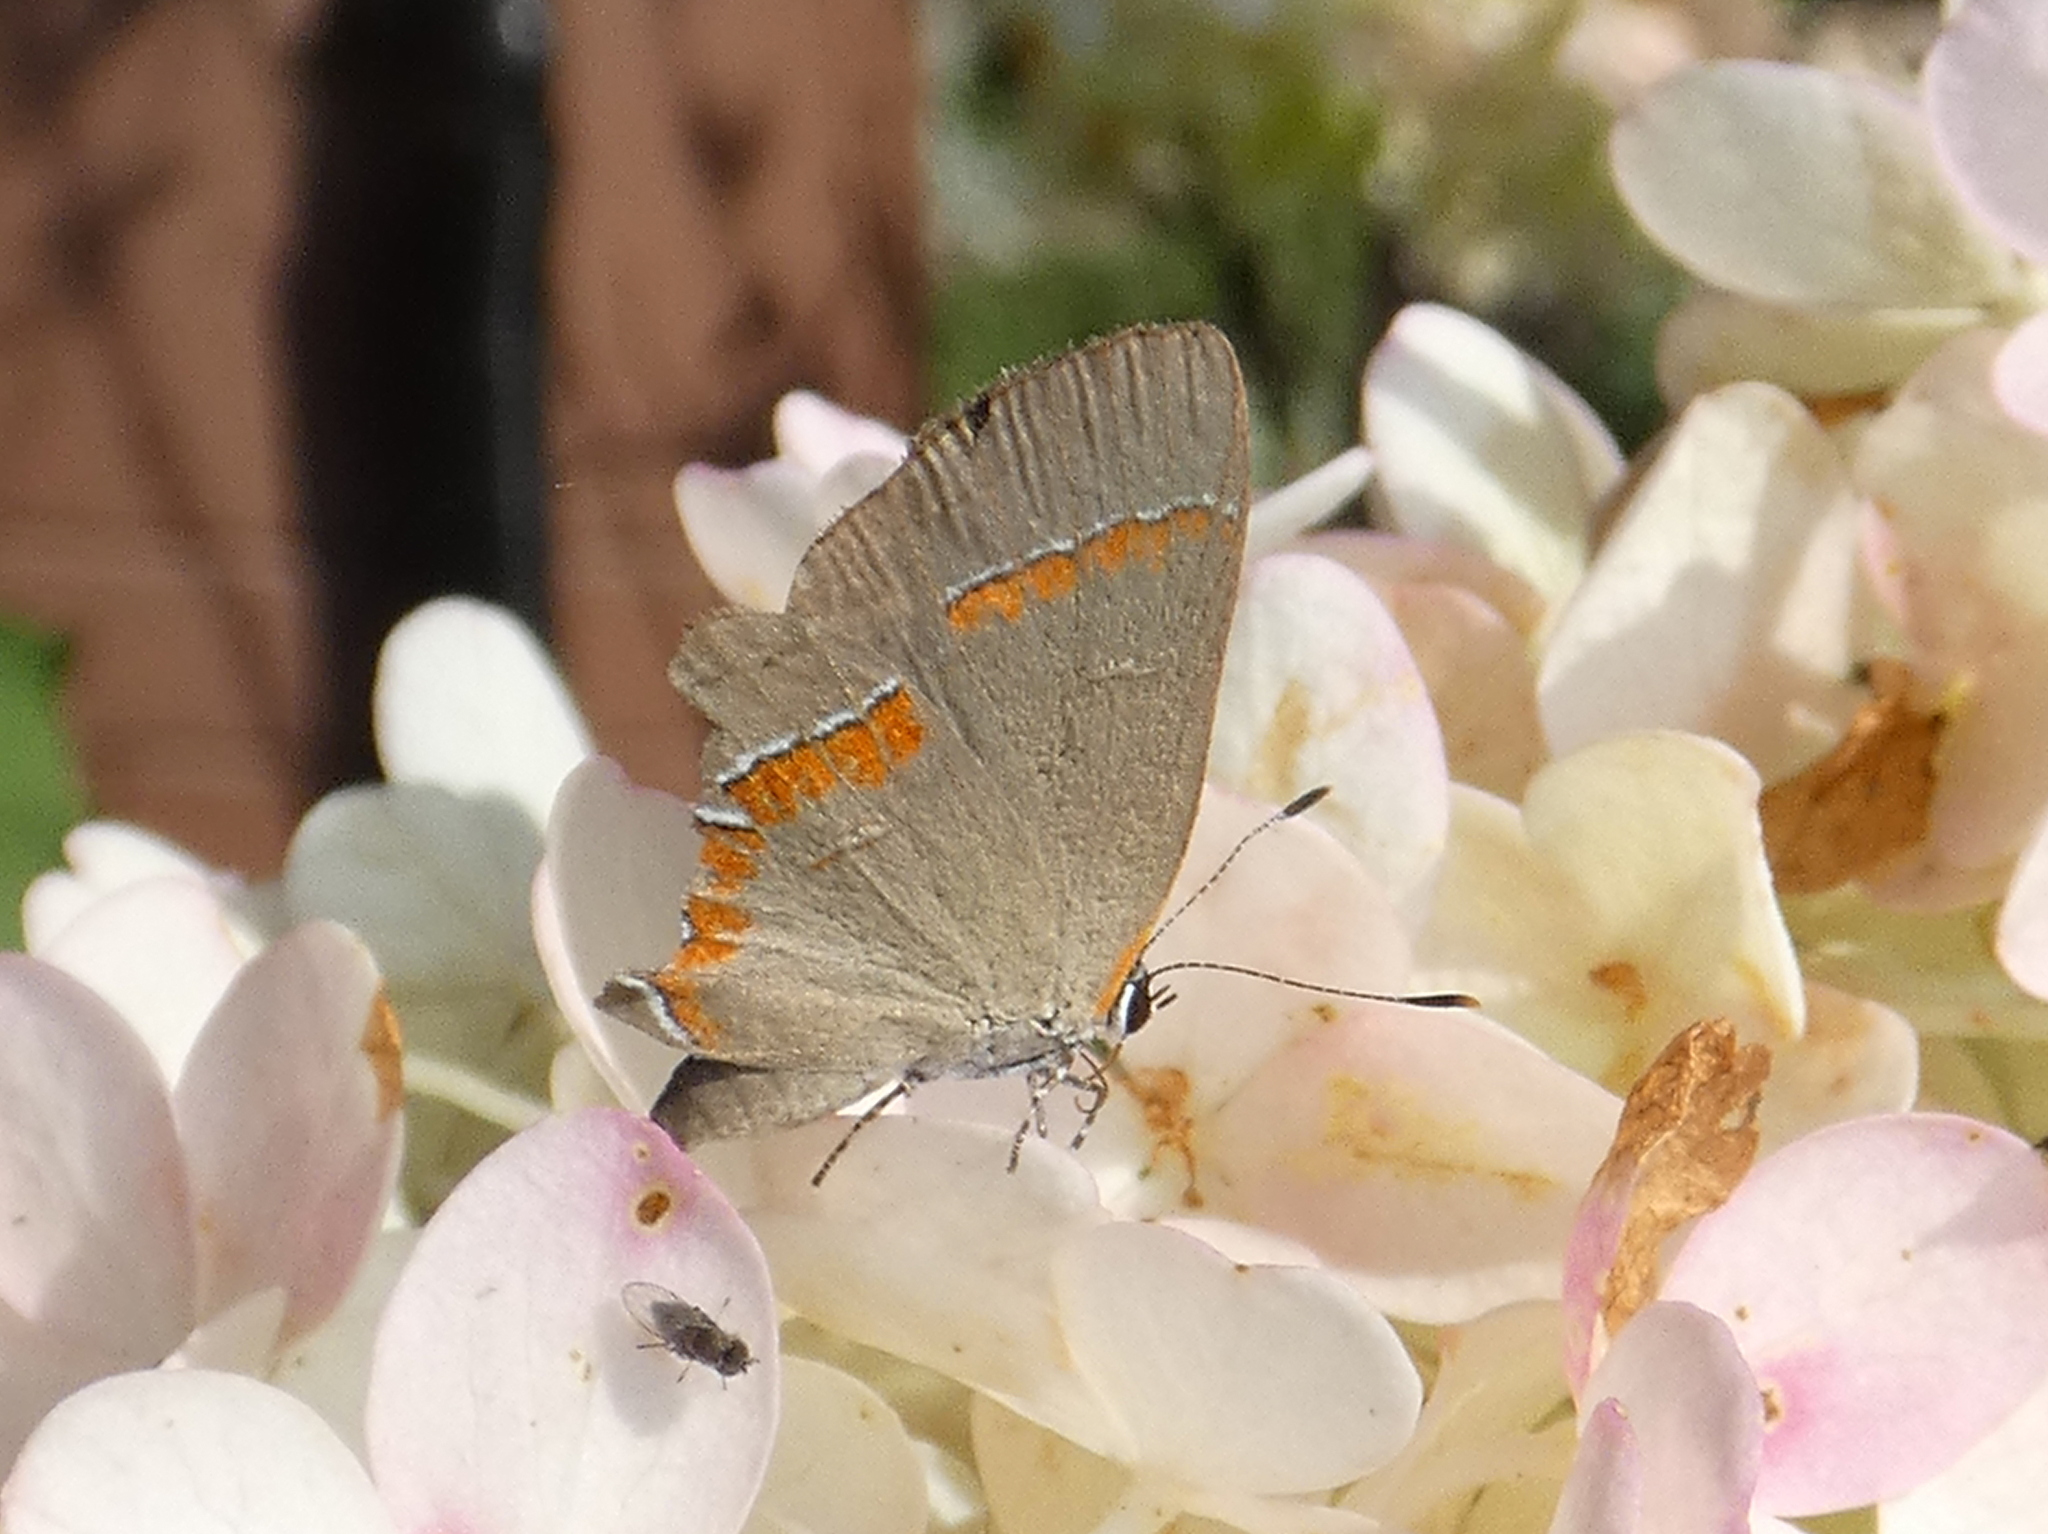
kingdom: Animalia
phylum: Arthropoda
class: Insecta
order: Lepidoptera
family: Lycaenidae
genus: Calycopis
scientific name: Calycopis cecrops
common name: Red-banded hairstreak
